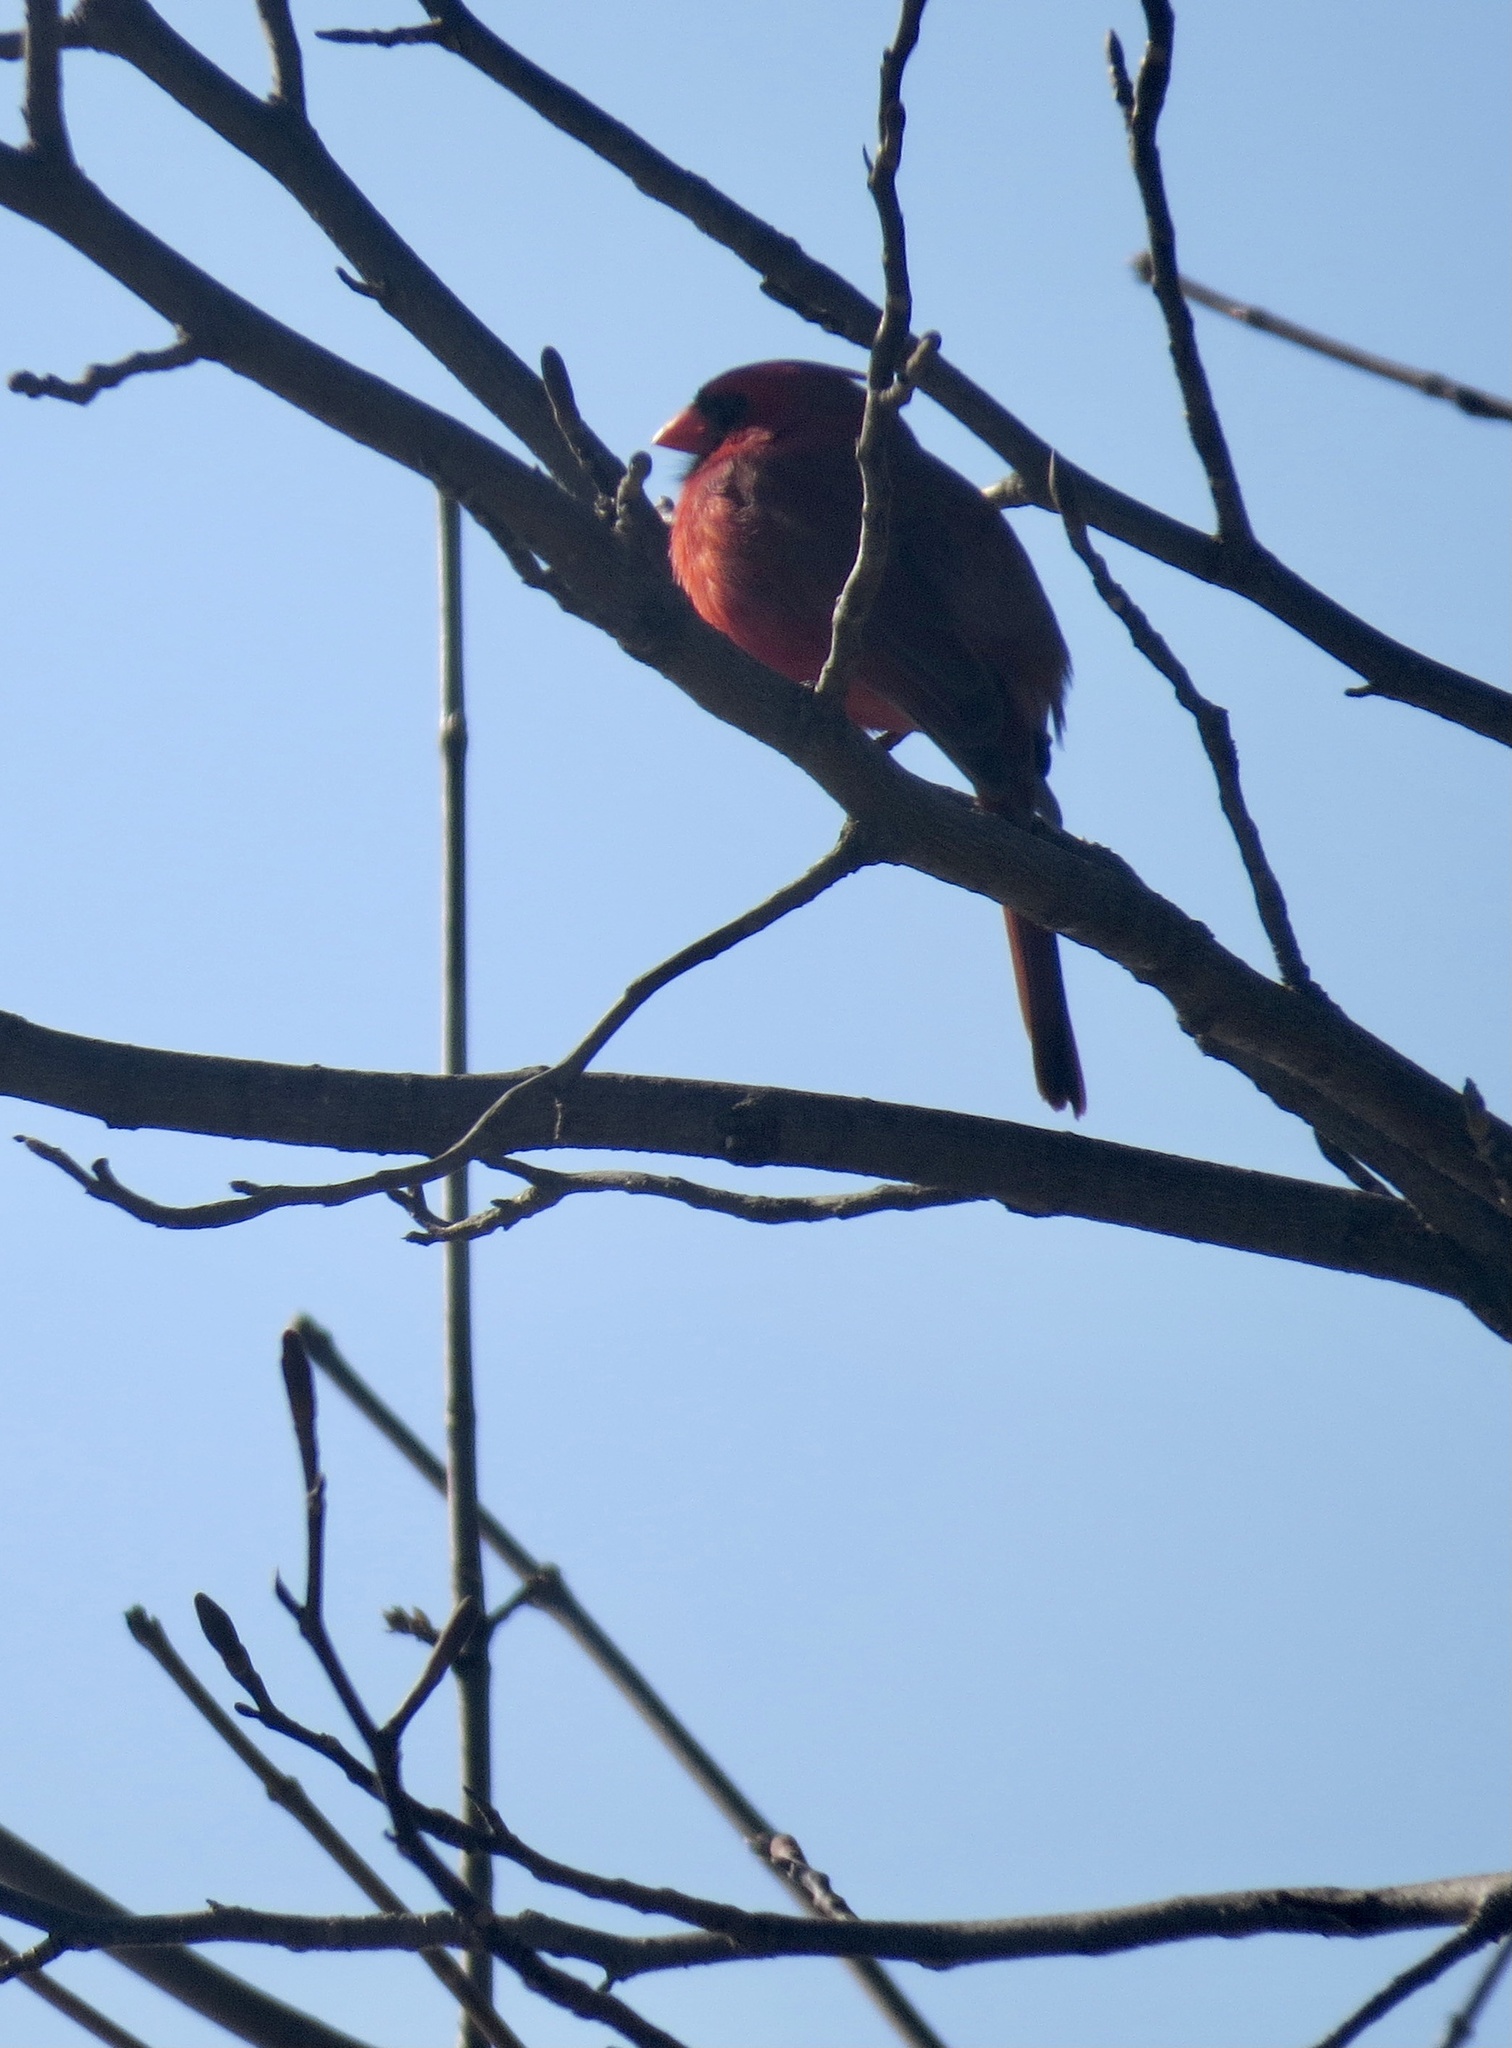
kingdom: Animalia
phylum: Chordata
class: Aves
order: Passeriformes
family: Cardinalidae
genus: Cardinalis
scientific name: Cardinalis cardinalis
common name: Northern cardinal
